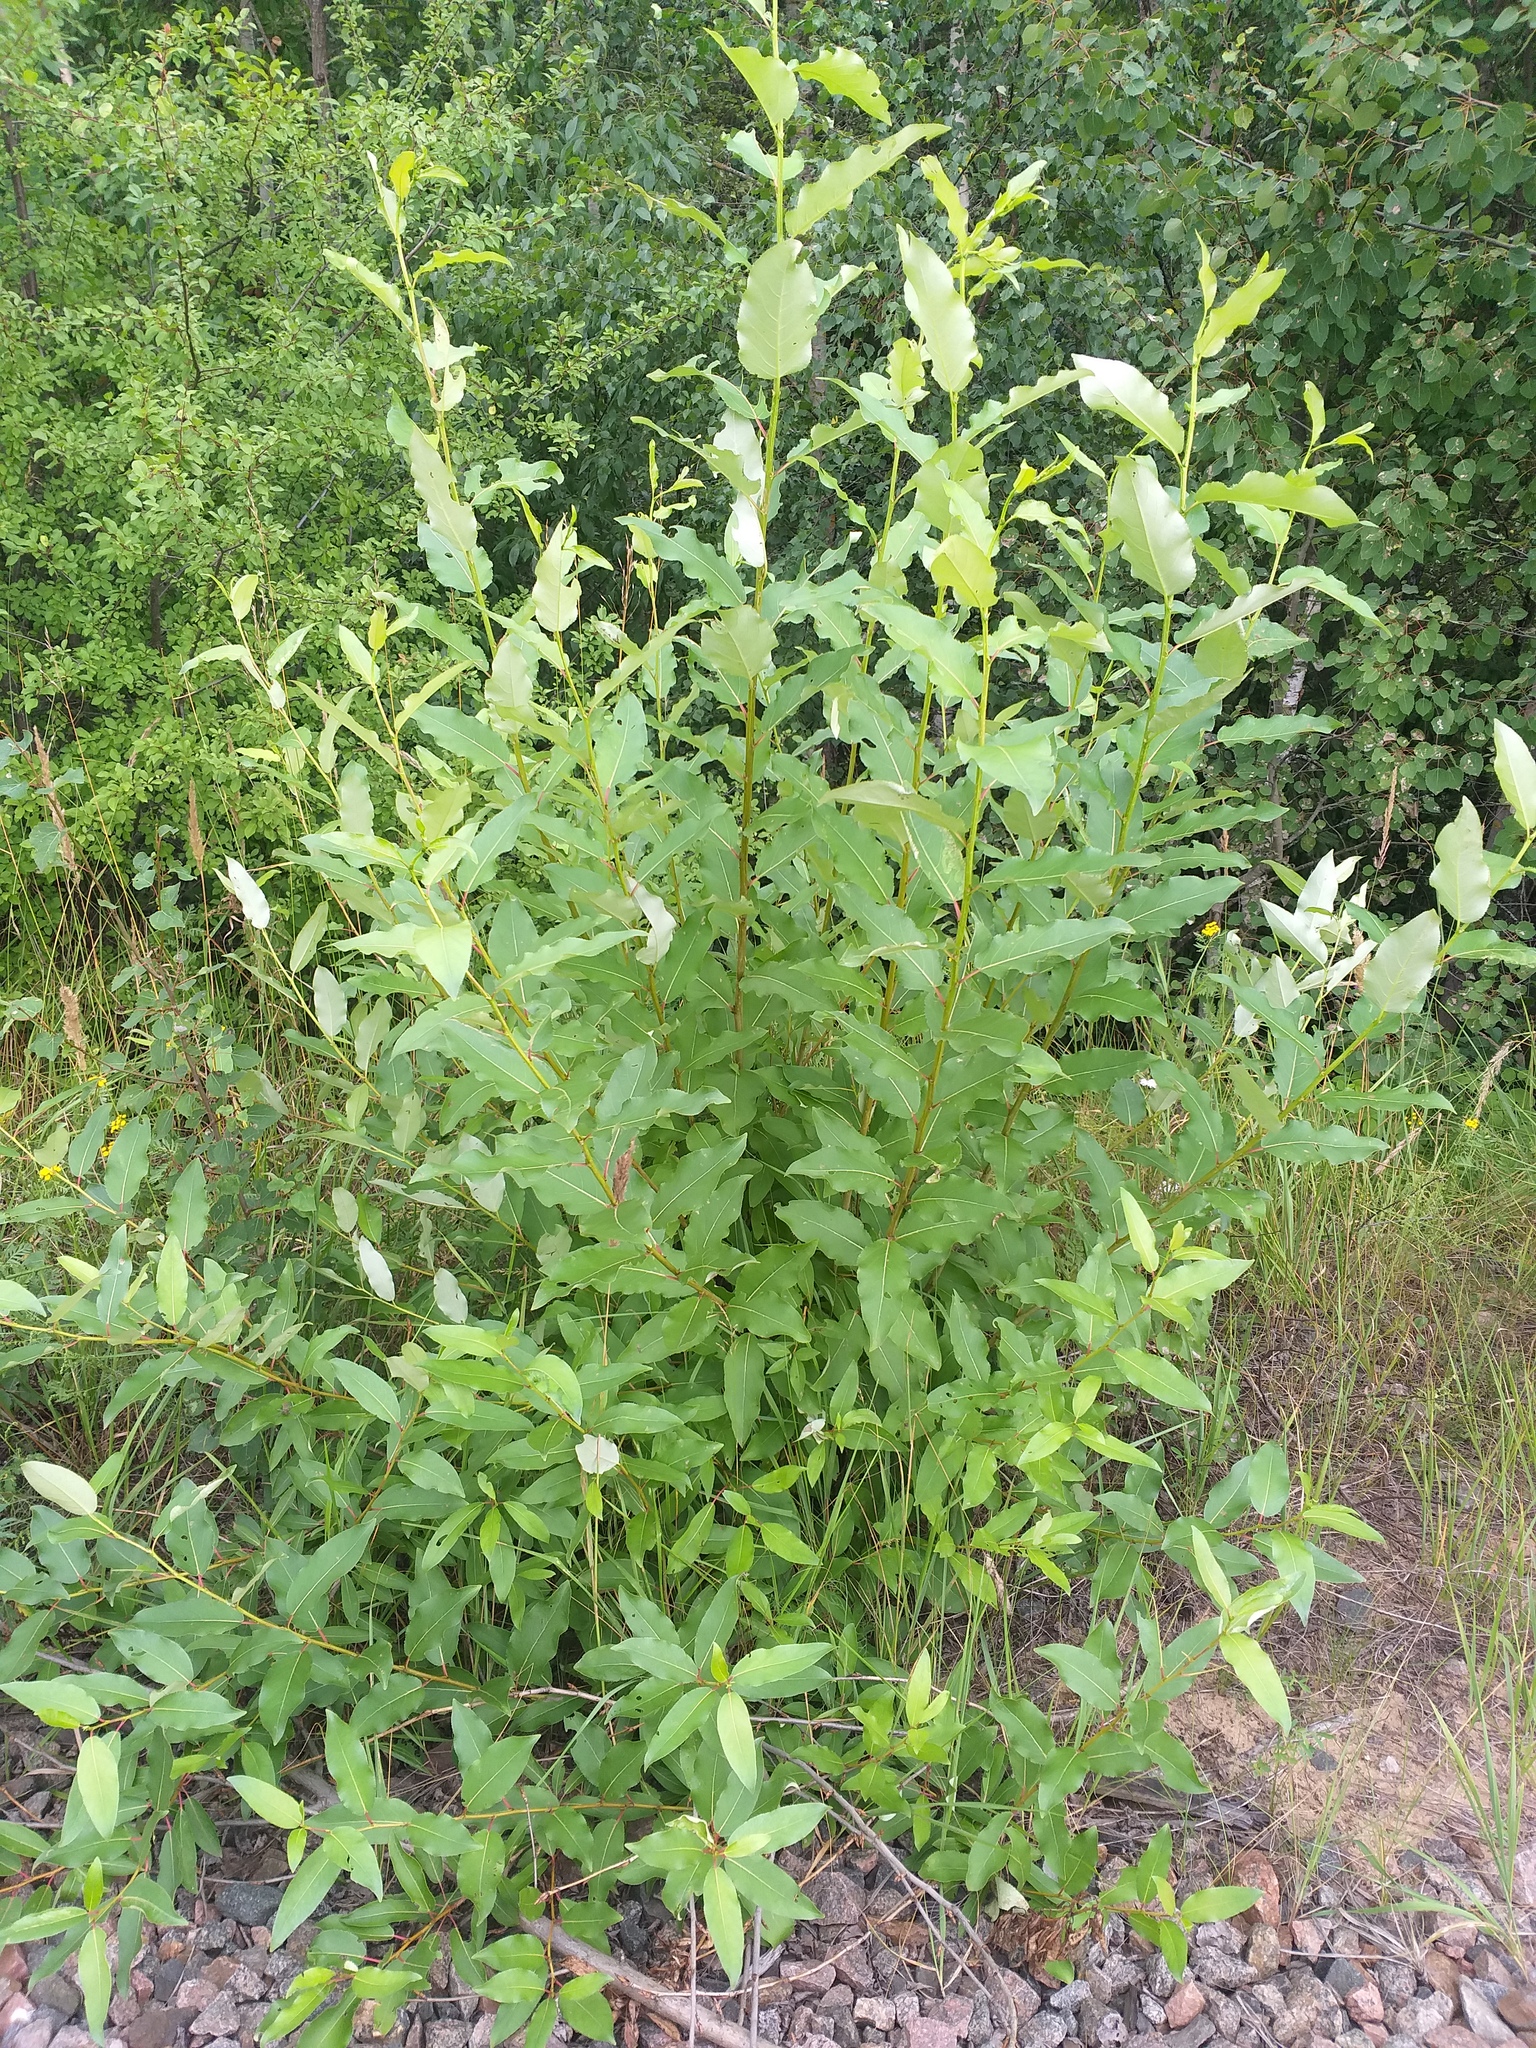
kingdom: Plantae
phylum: Tracheophyta
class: Magnoliopsida
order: Malpighiales
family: Salicaceae
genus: Populus
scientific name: Populus
